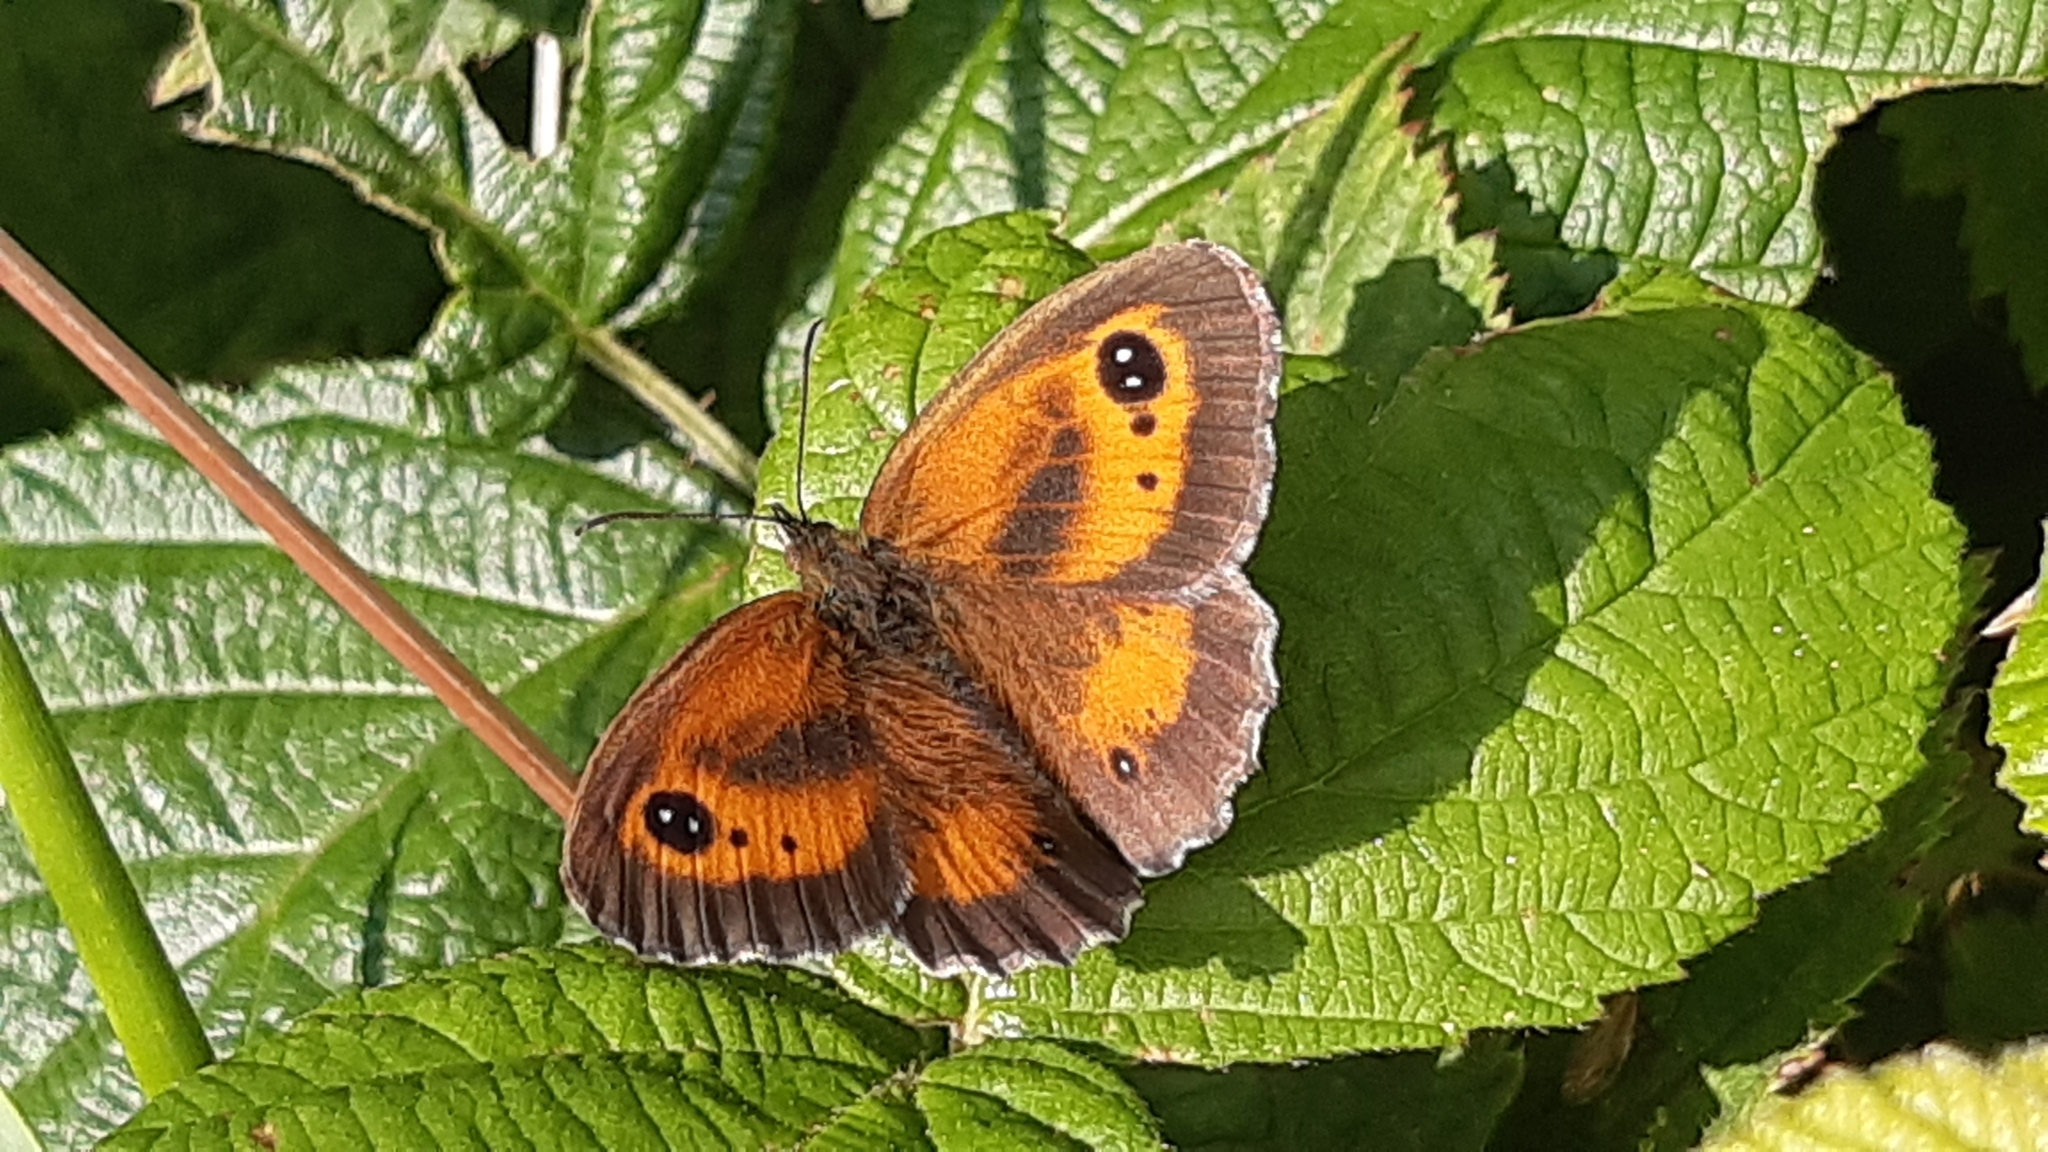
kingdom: Animalia
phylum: Arthropoda
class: Insecta
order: Lepidoptera
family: Nymphalidae
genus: Pyronia
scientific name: Pyronia tithonus
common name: Gatekeeper
